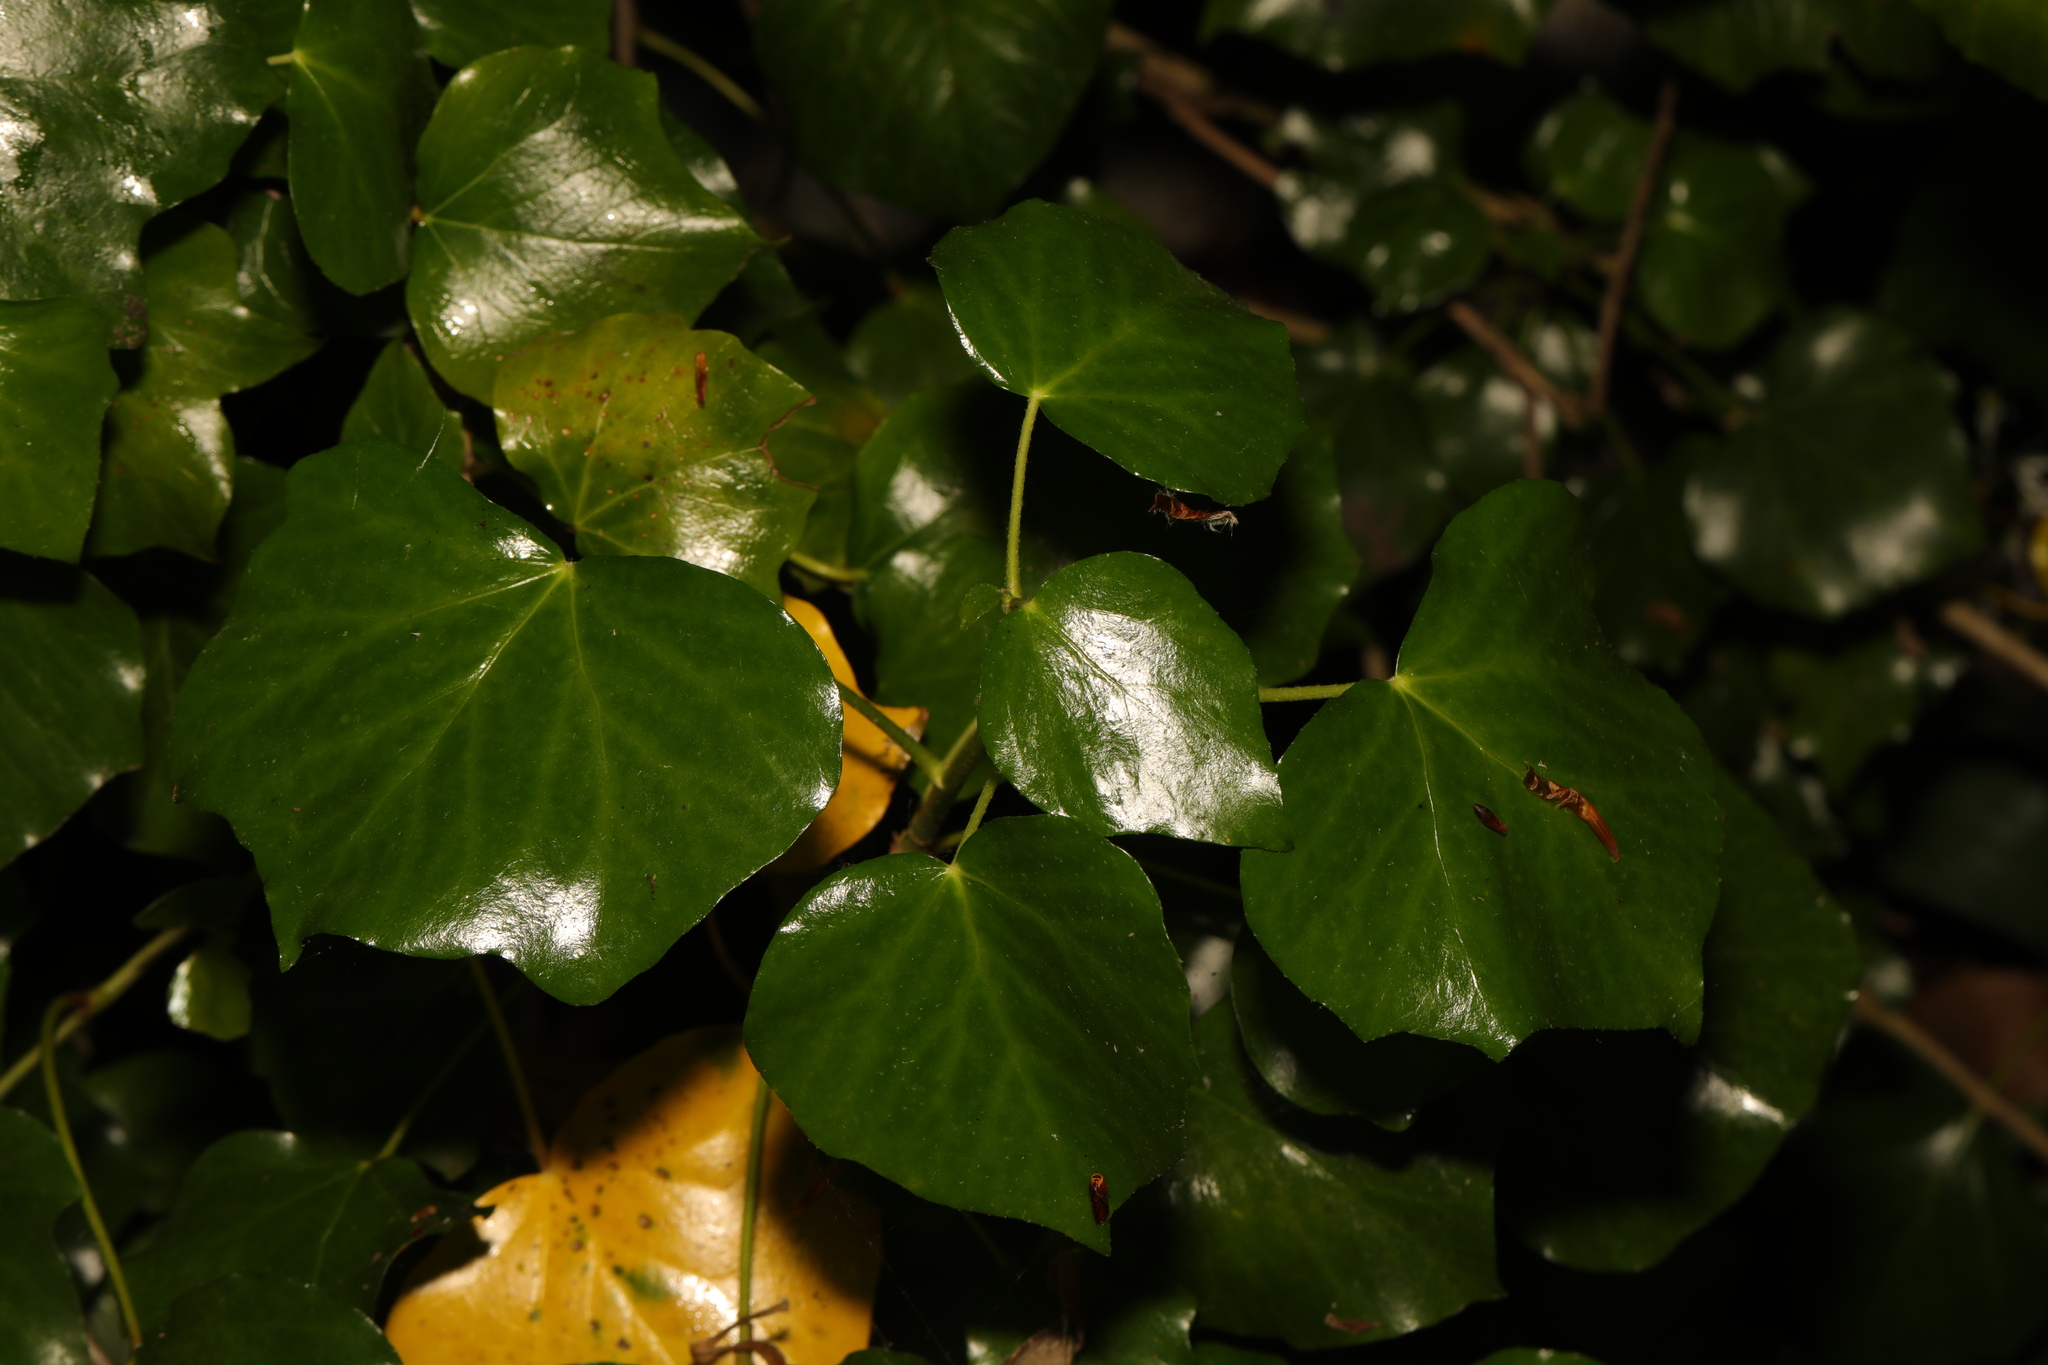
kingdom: Plantae
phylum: Tracheophyta
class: Magnoliopsida
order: Apiales
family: Araliaceae
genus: Hedera
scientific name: Hedera helix
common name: Ivy
